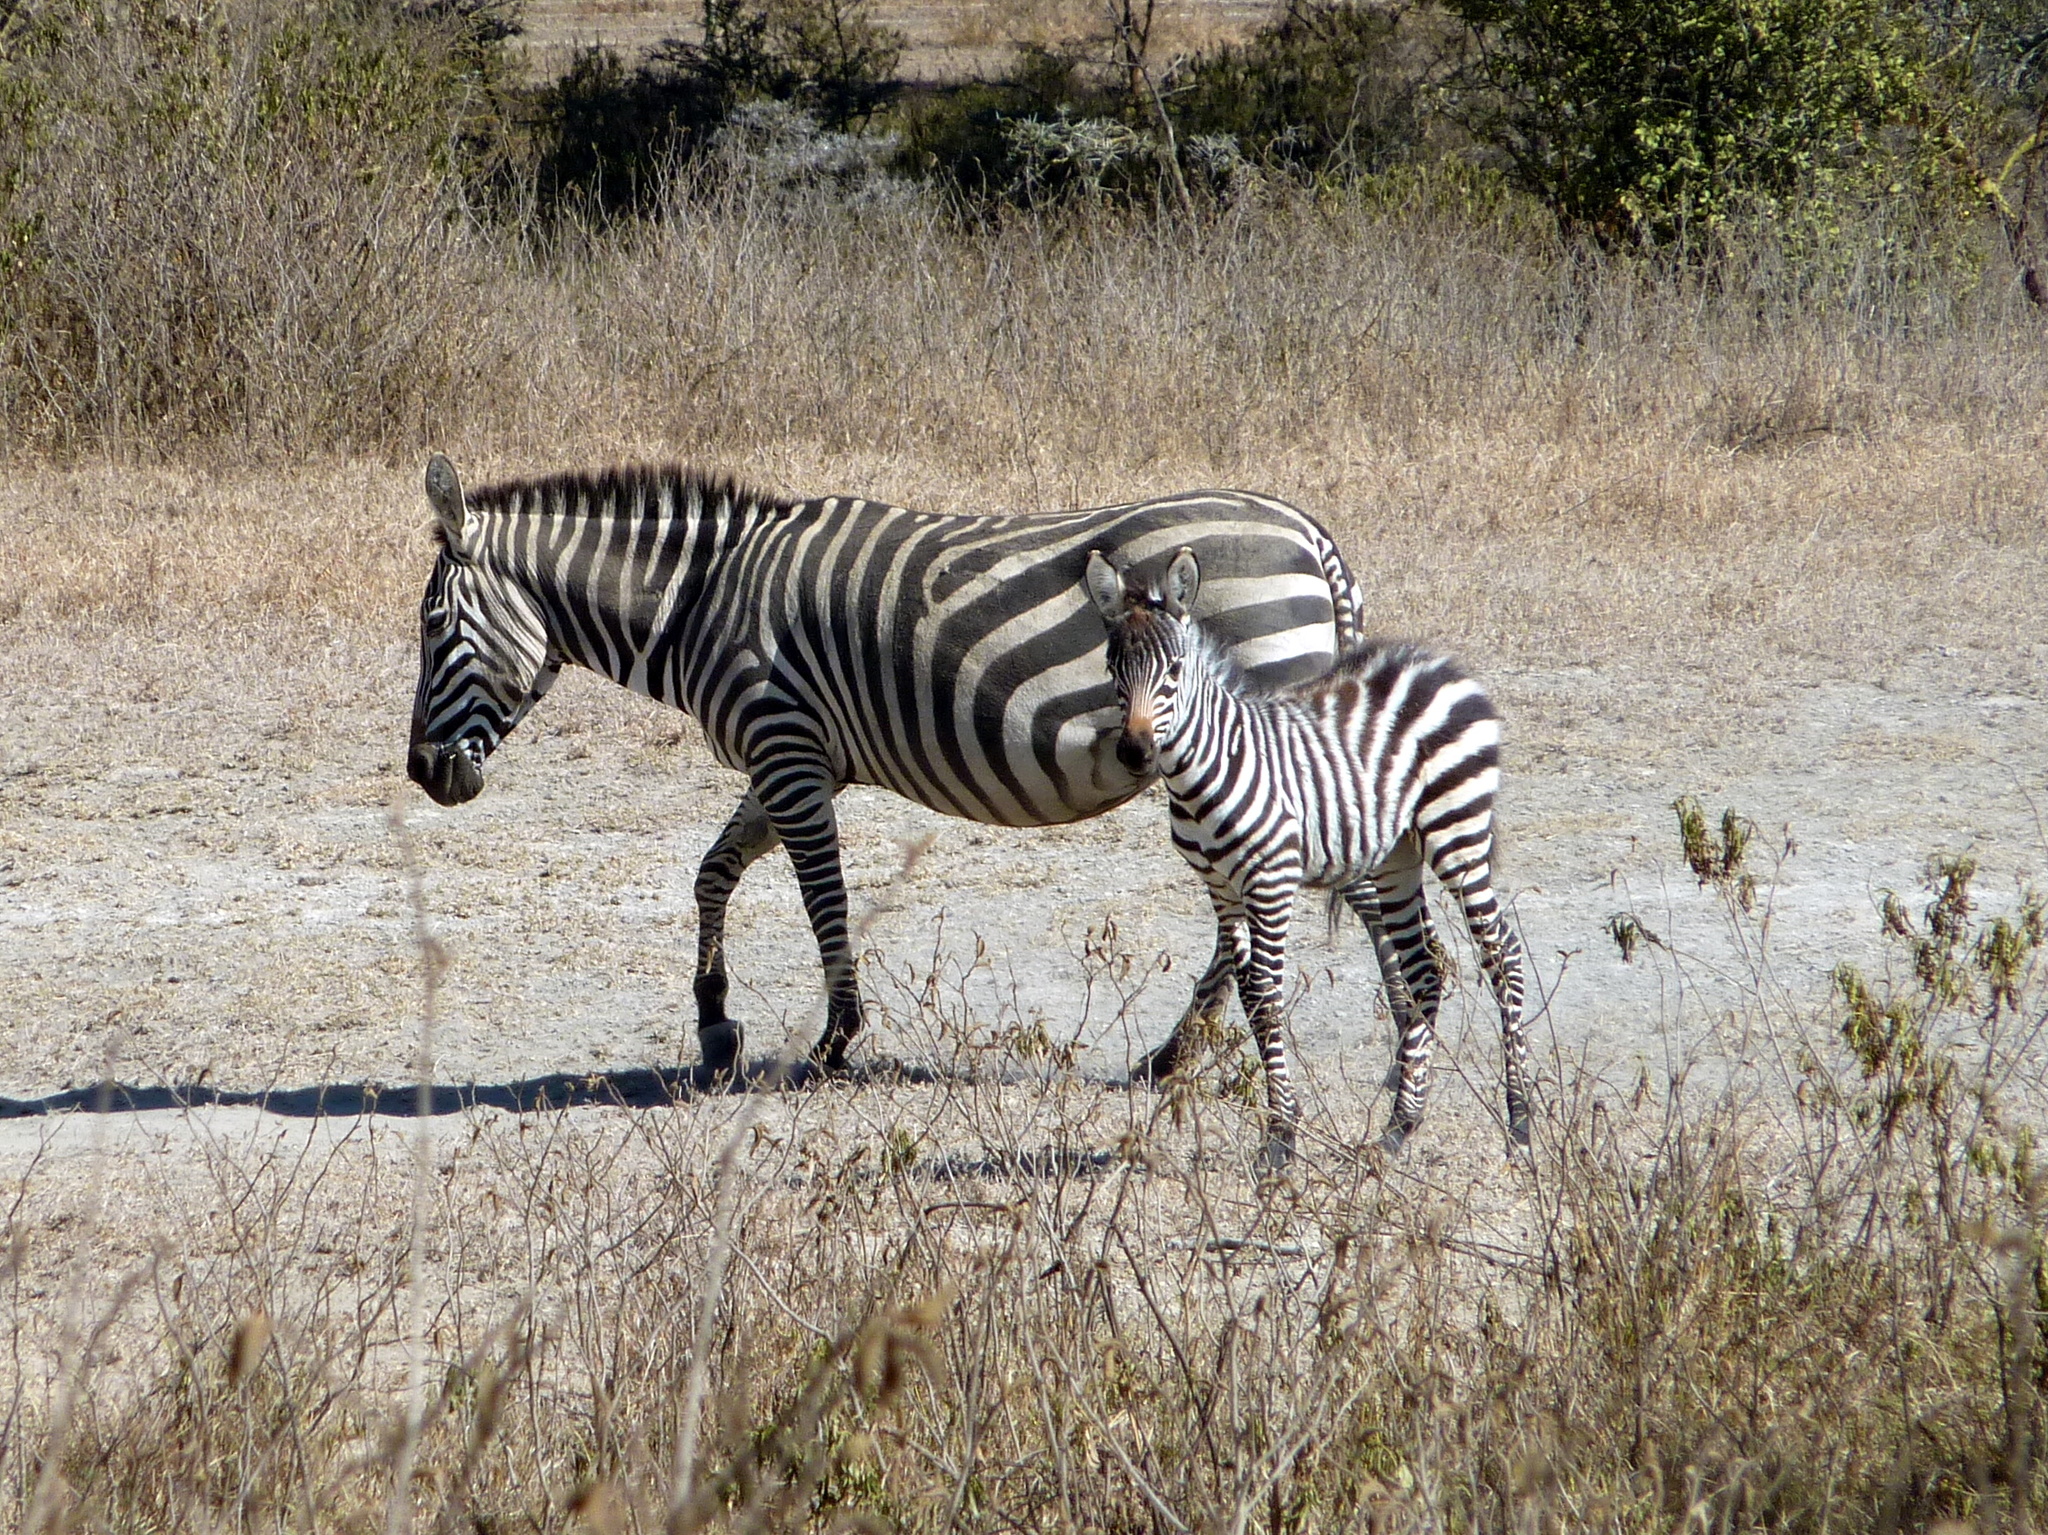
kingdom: Animalia
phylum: Chordata
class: Mammalia
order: Perissodactyla
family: Equidae
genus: Equus
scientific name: Equus quagga
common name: Plains zebra
